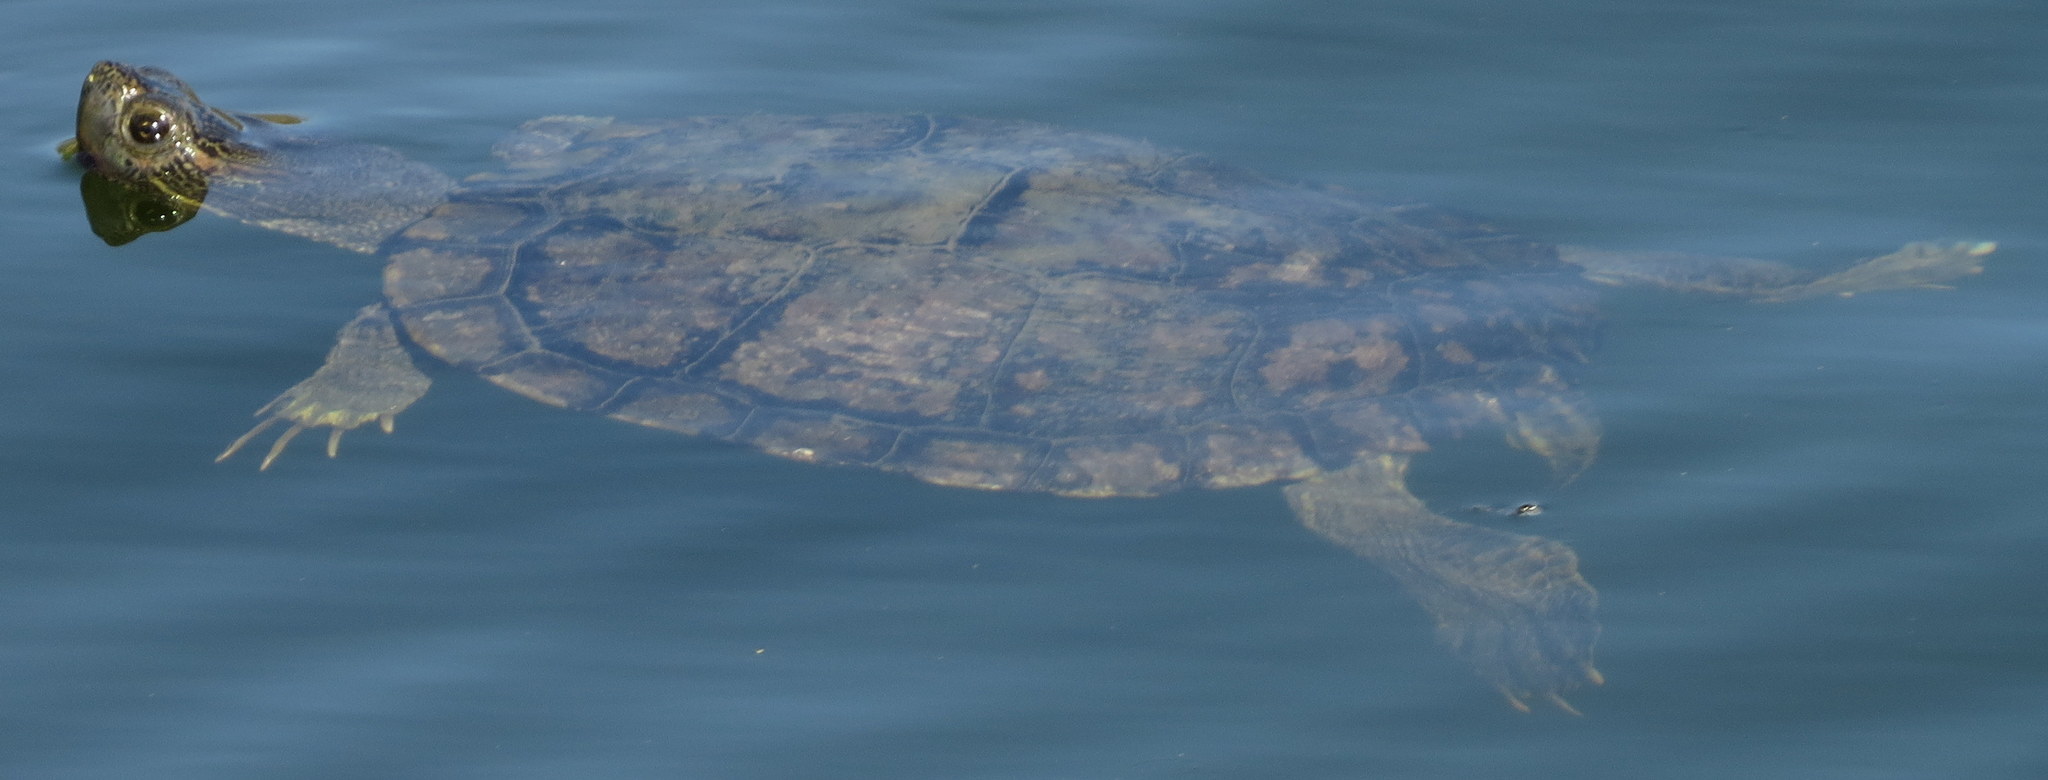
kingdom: Animalia
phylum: Chordata
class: Testudines
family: Emydidae
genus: Trachemys
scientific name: Trachemys scripta
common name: Slider
